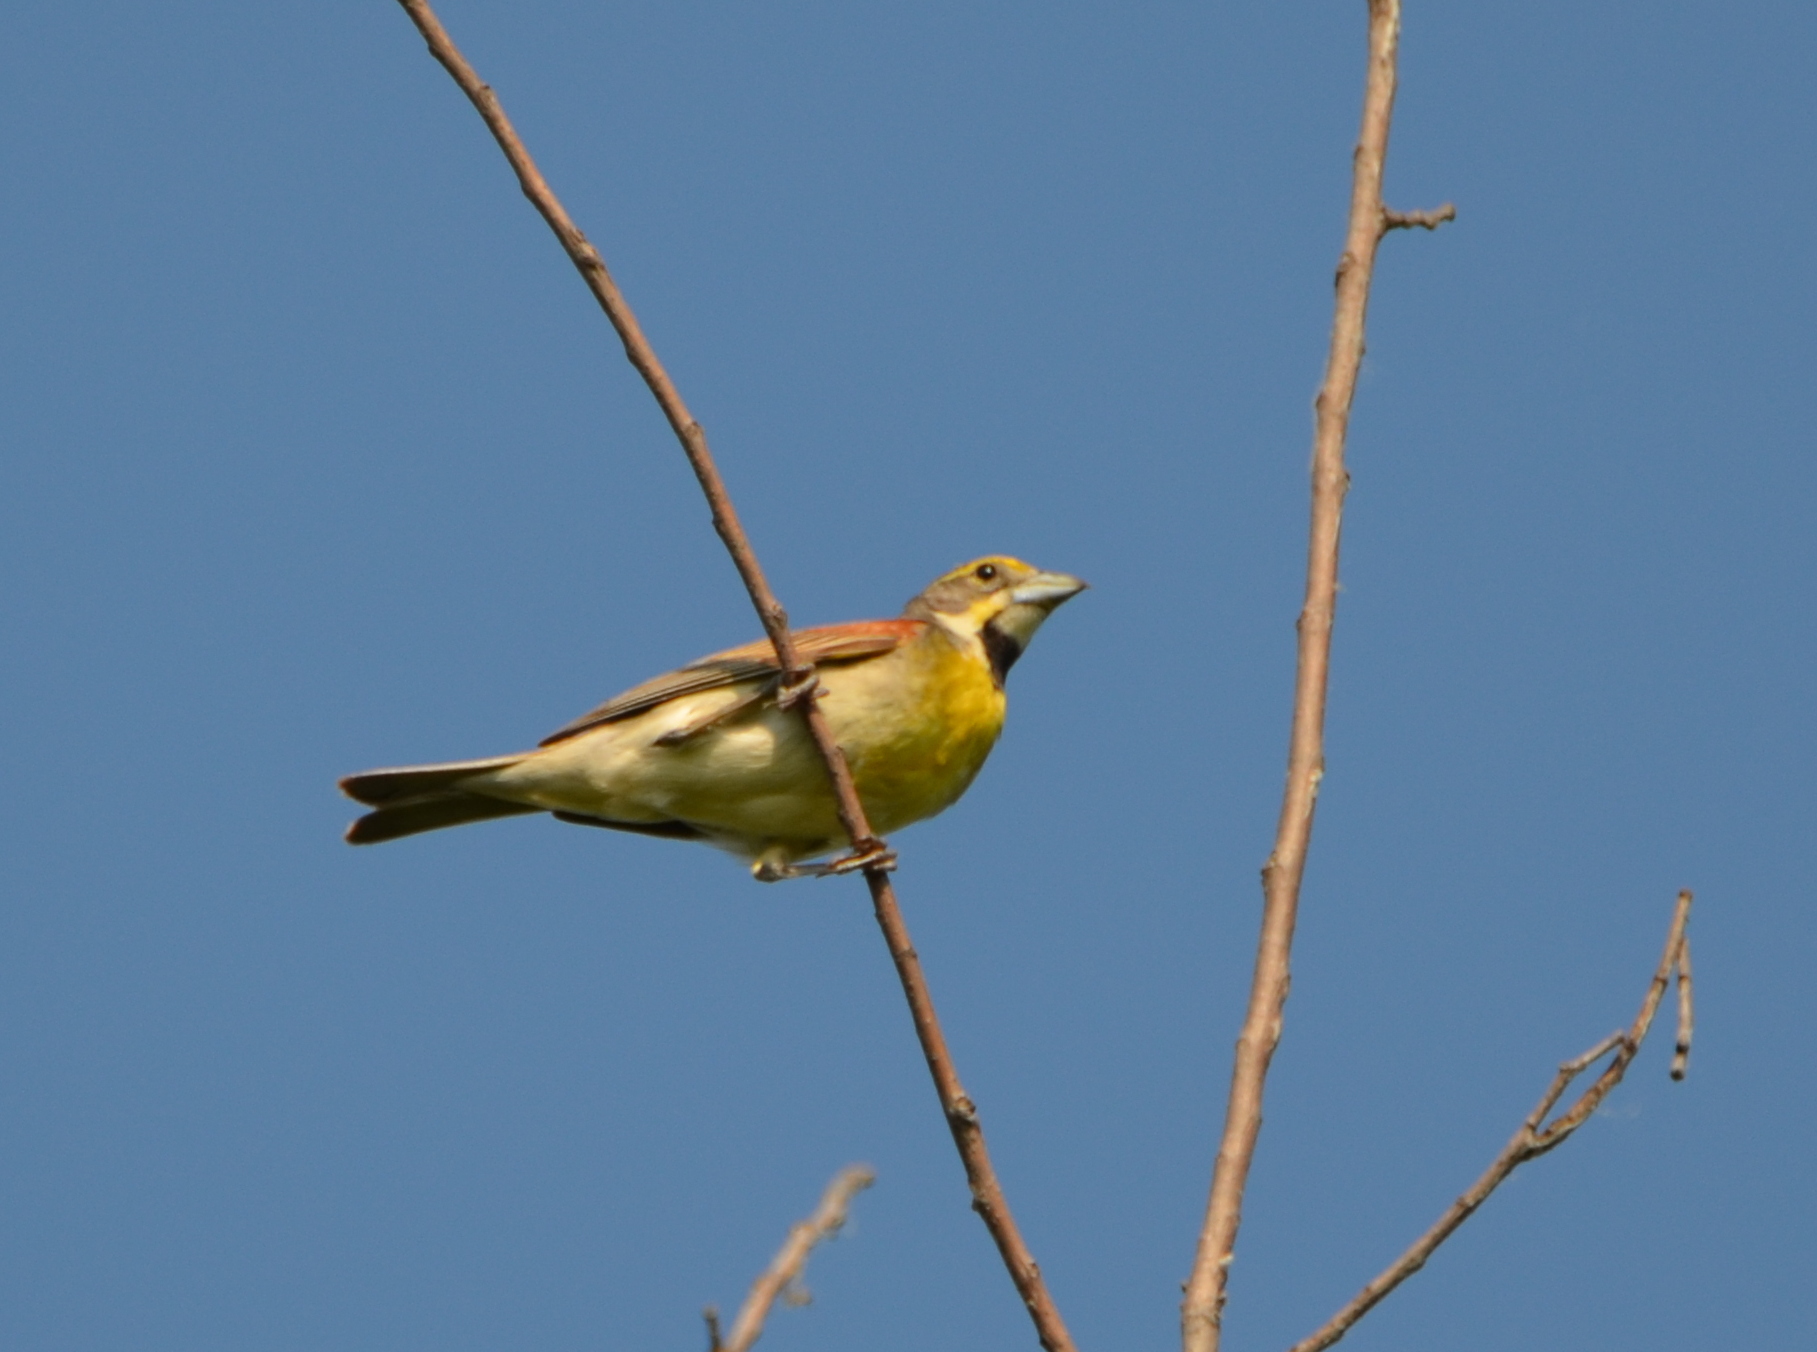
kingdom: Animalia
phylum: Chordata
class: Aves
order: Passeriformes
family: Cardinalidae
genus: Spiza
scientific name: Spiza americana
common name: Dickcissel
